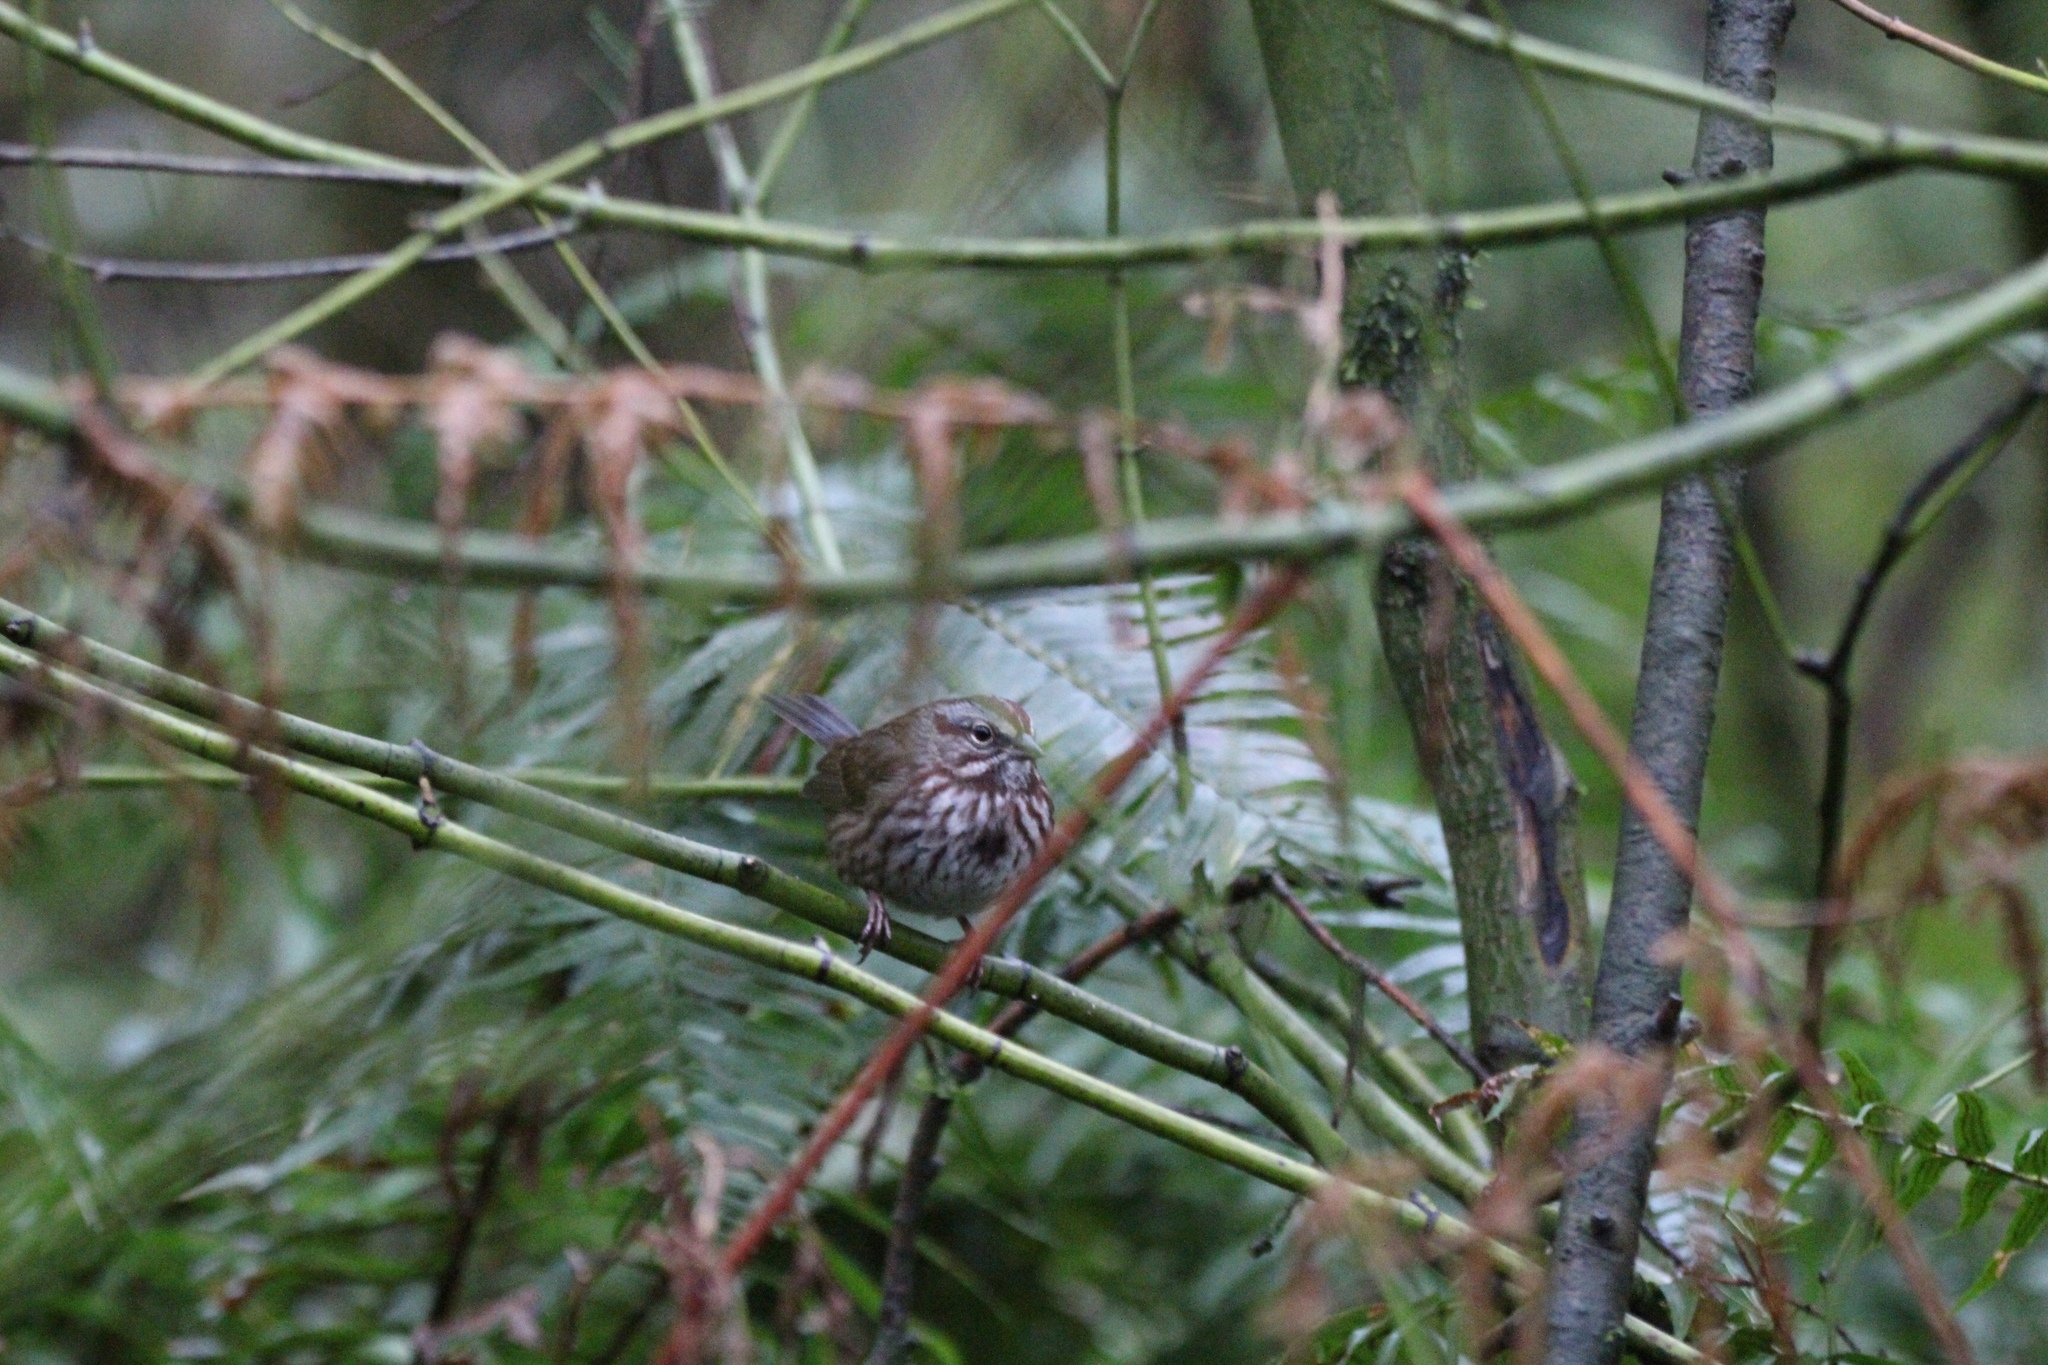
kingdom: Animalia
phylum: Chordata
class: Aves
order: Passeriformes
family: Passerellidae
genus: Melospiza
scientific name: Melospiza melodia
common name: Song sparrow
